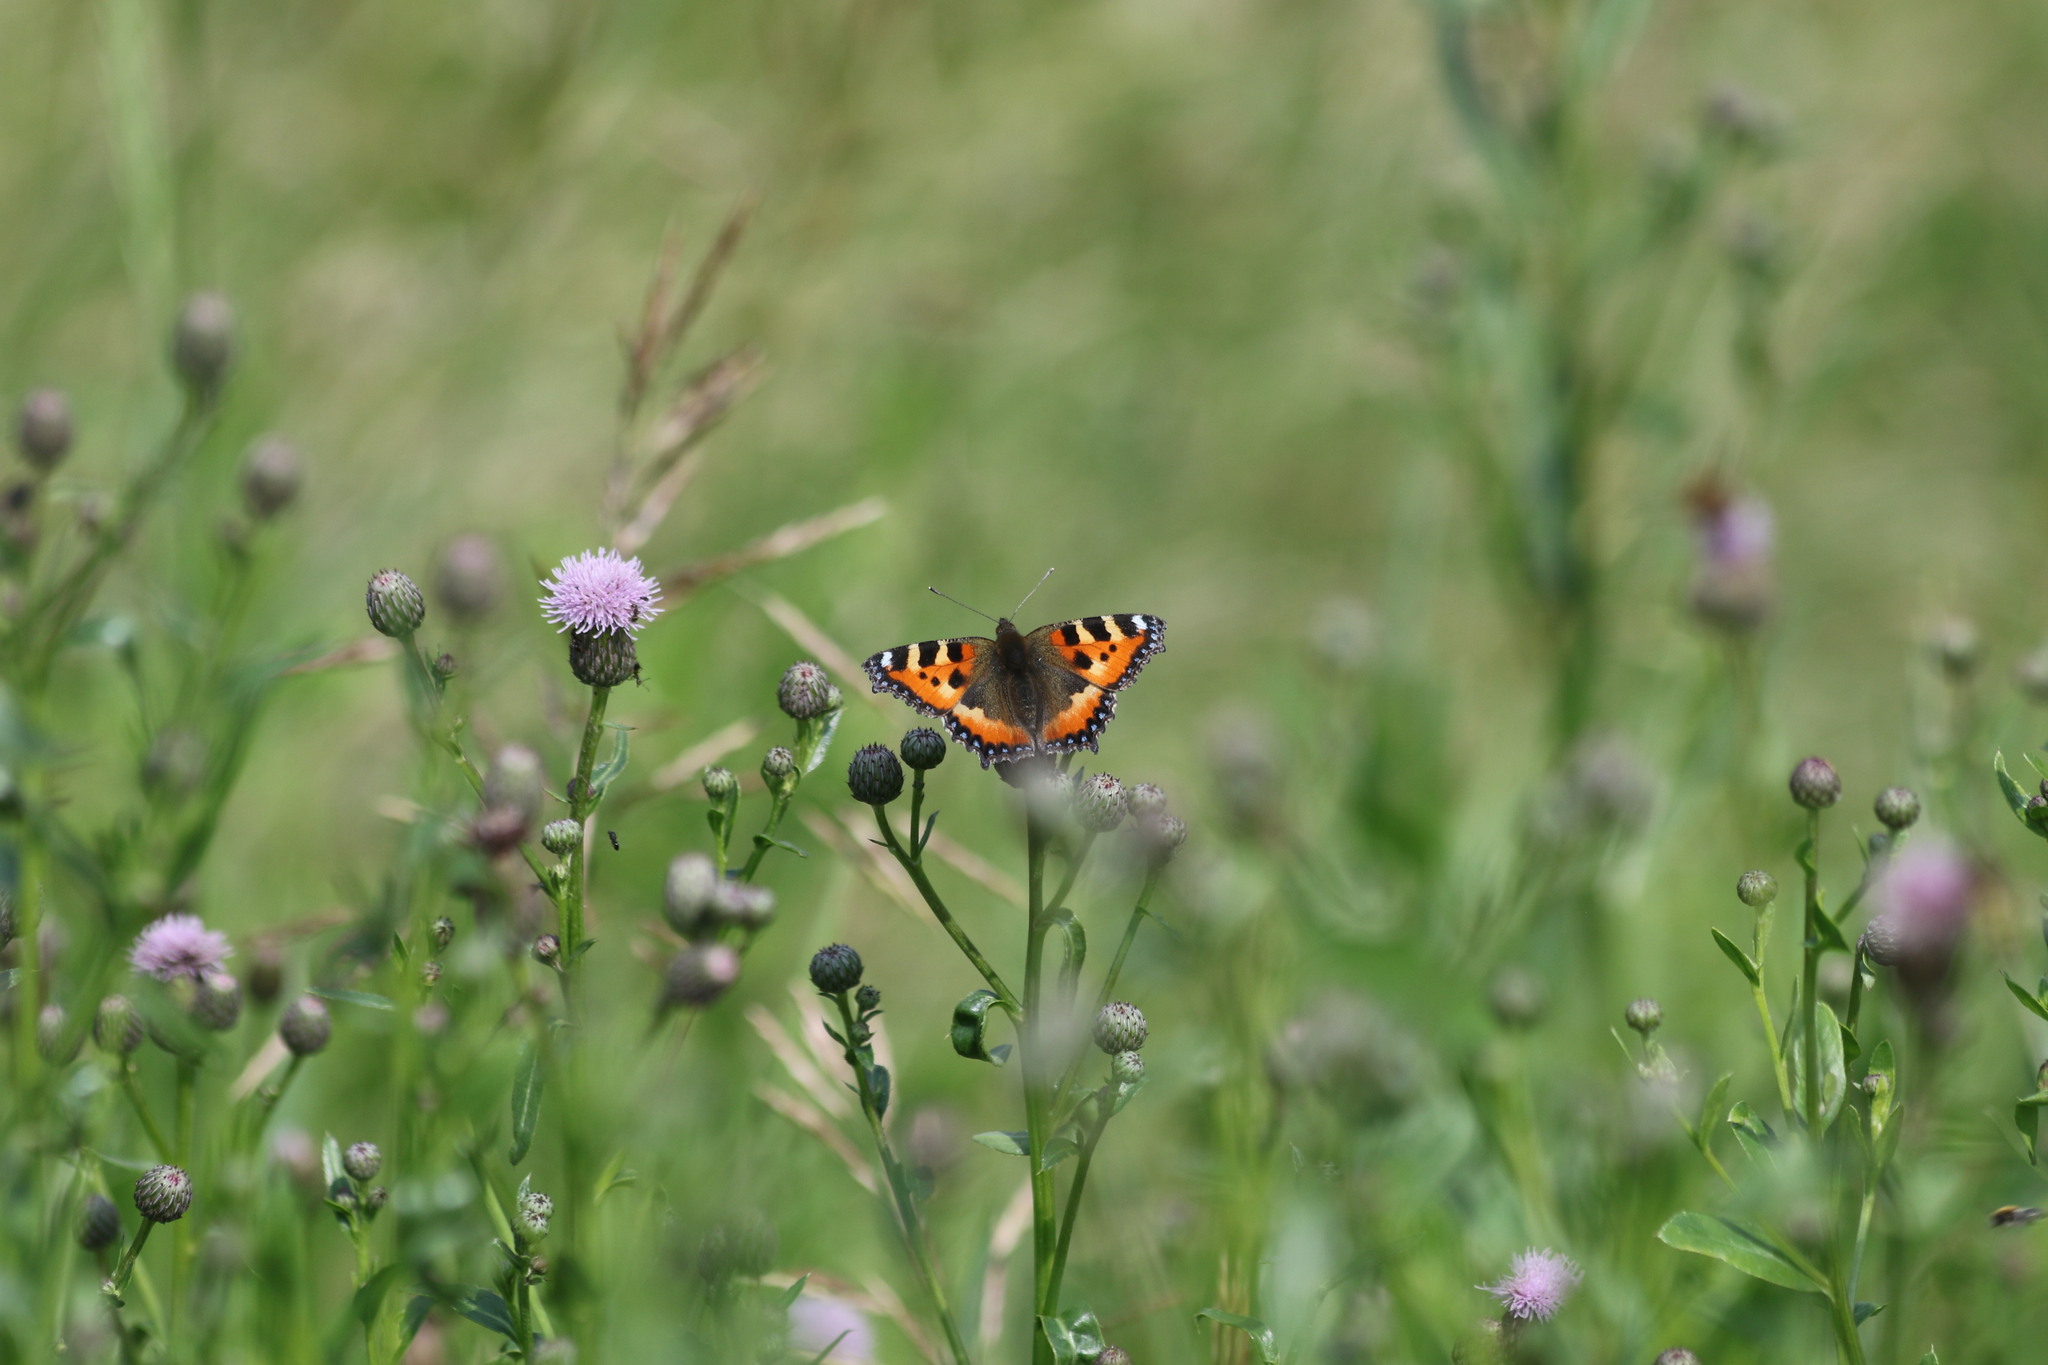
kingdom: Animalia
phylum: Arthropoda
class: Insecta
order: Lepidoptera
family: Nymphalidae
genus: Aglais
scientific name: Aglais urticae
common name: Small tortoiseshell
